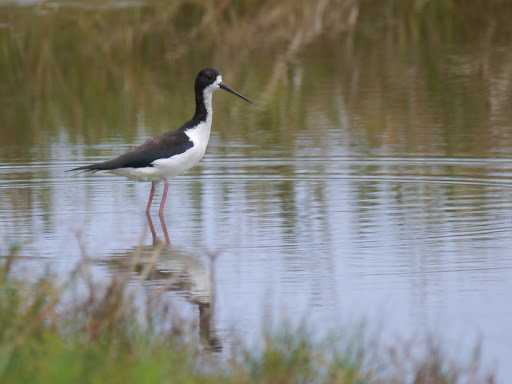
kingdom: Animalia
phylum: Chordata
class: Aves
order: Charadriiformes
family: Recurvirostridae
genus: Himantopus
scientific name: Himantopus mexicanus
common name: Black-necked stilt
